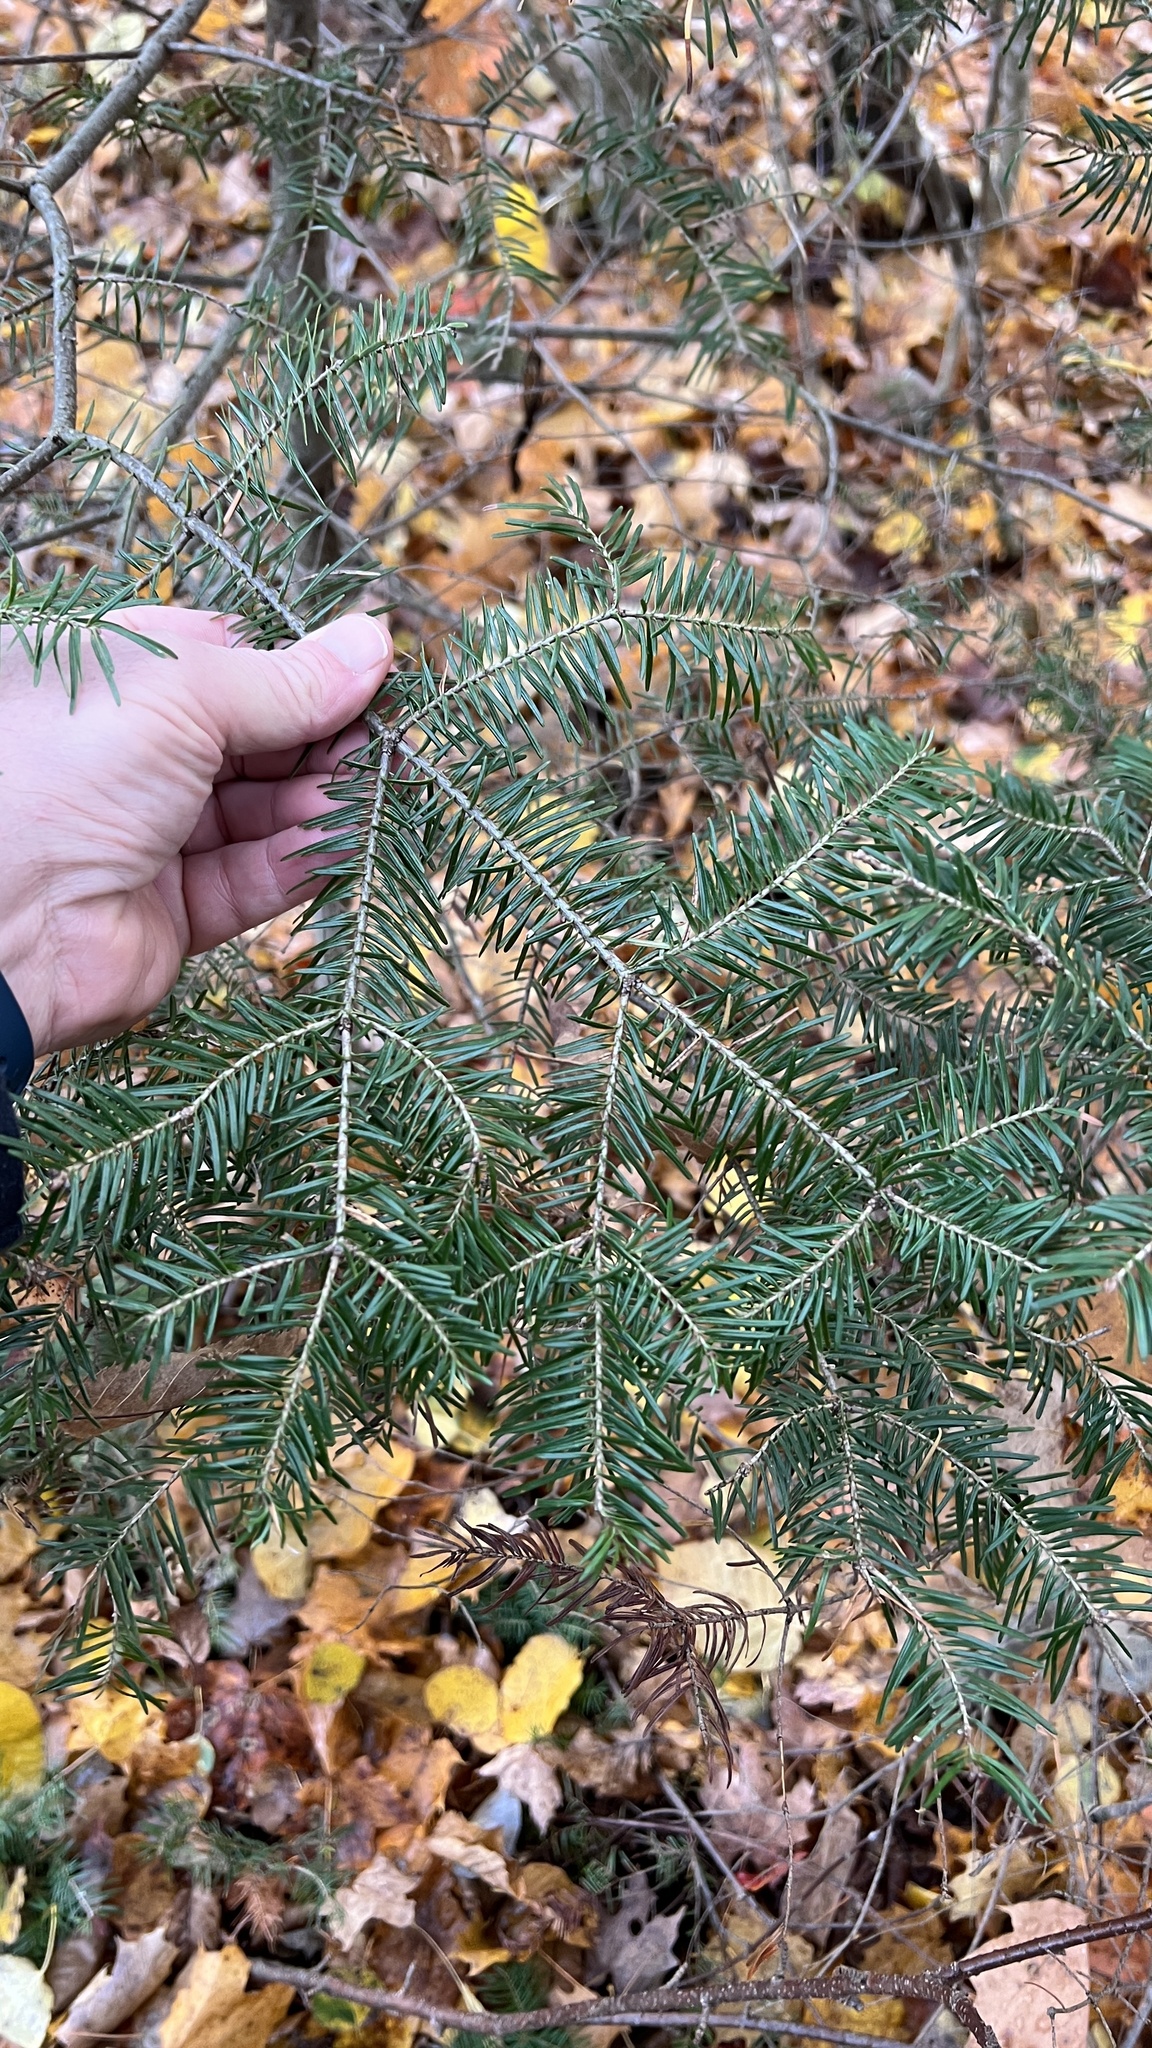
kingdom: Plantae
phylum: Tracheophyta
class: Pinopsida
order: Pinales
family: Pinaceae
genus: Abies
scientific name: Abies balsamea
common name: Balsam fir
